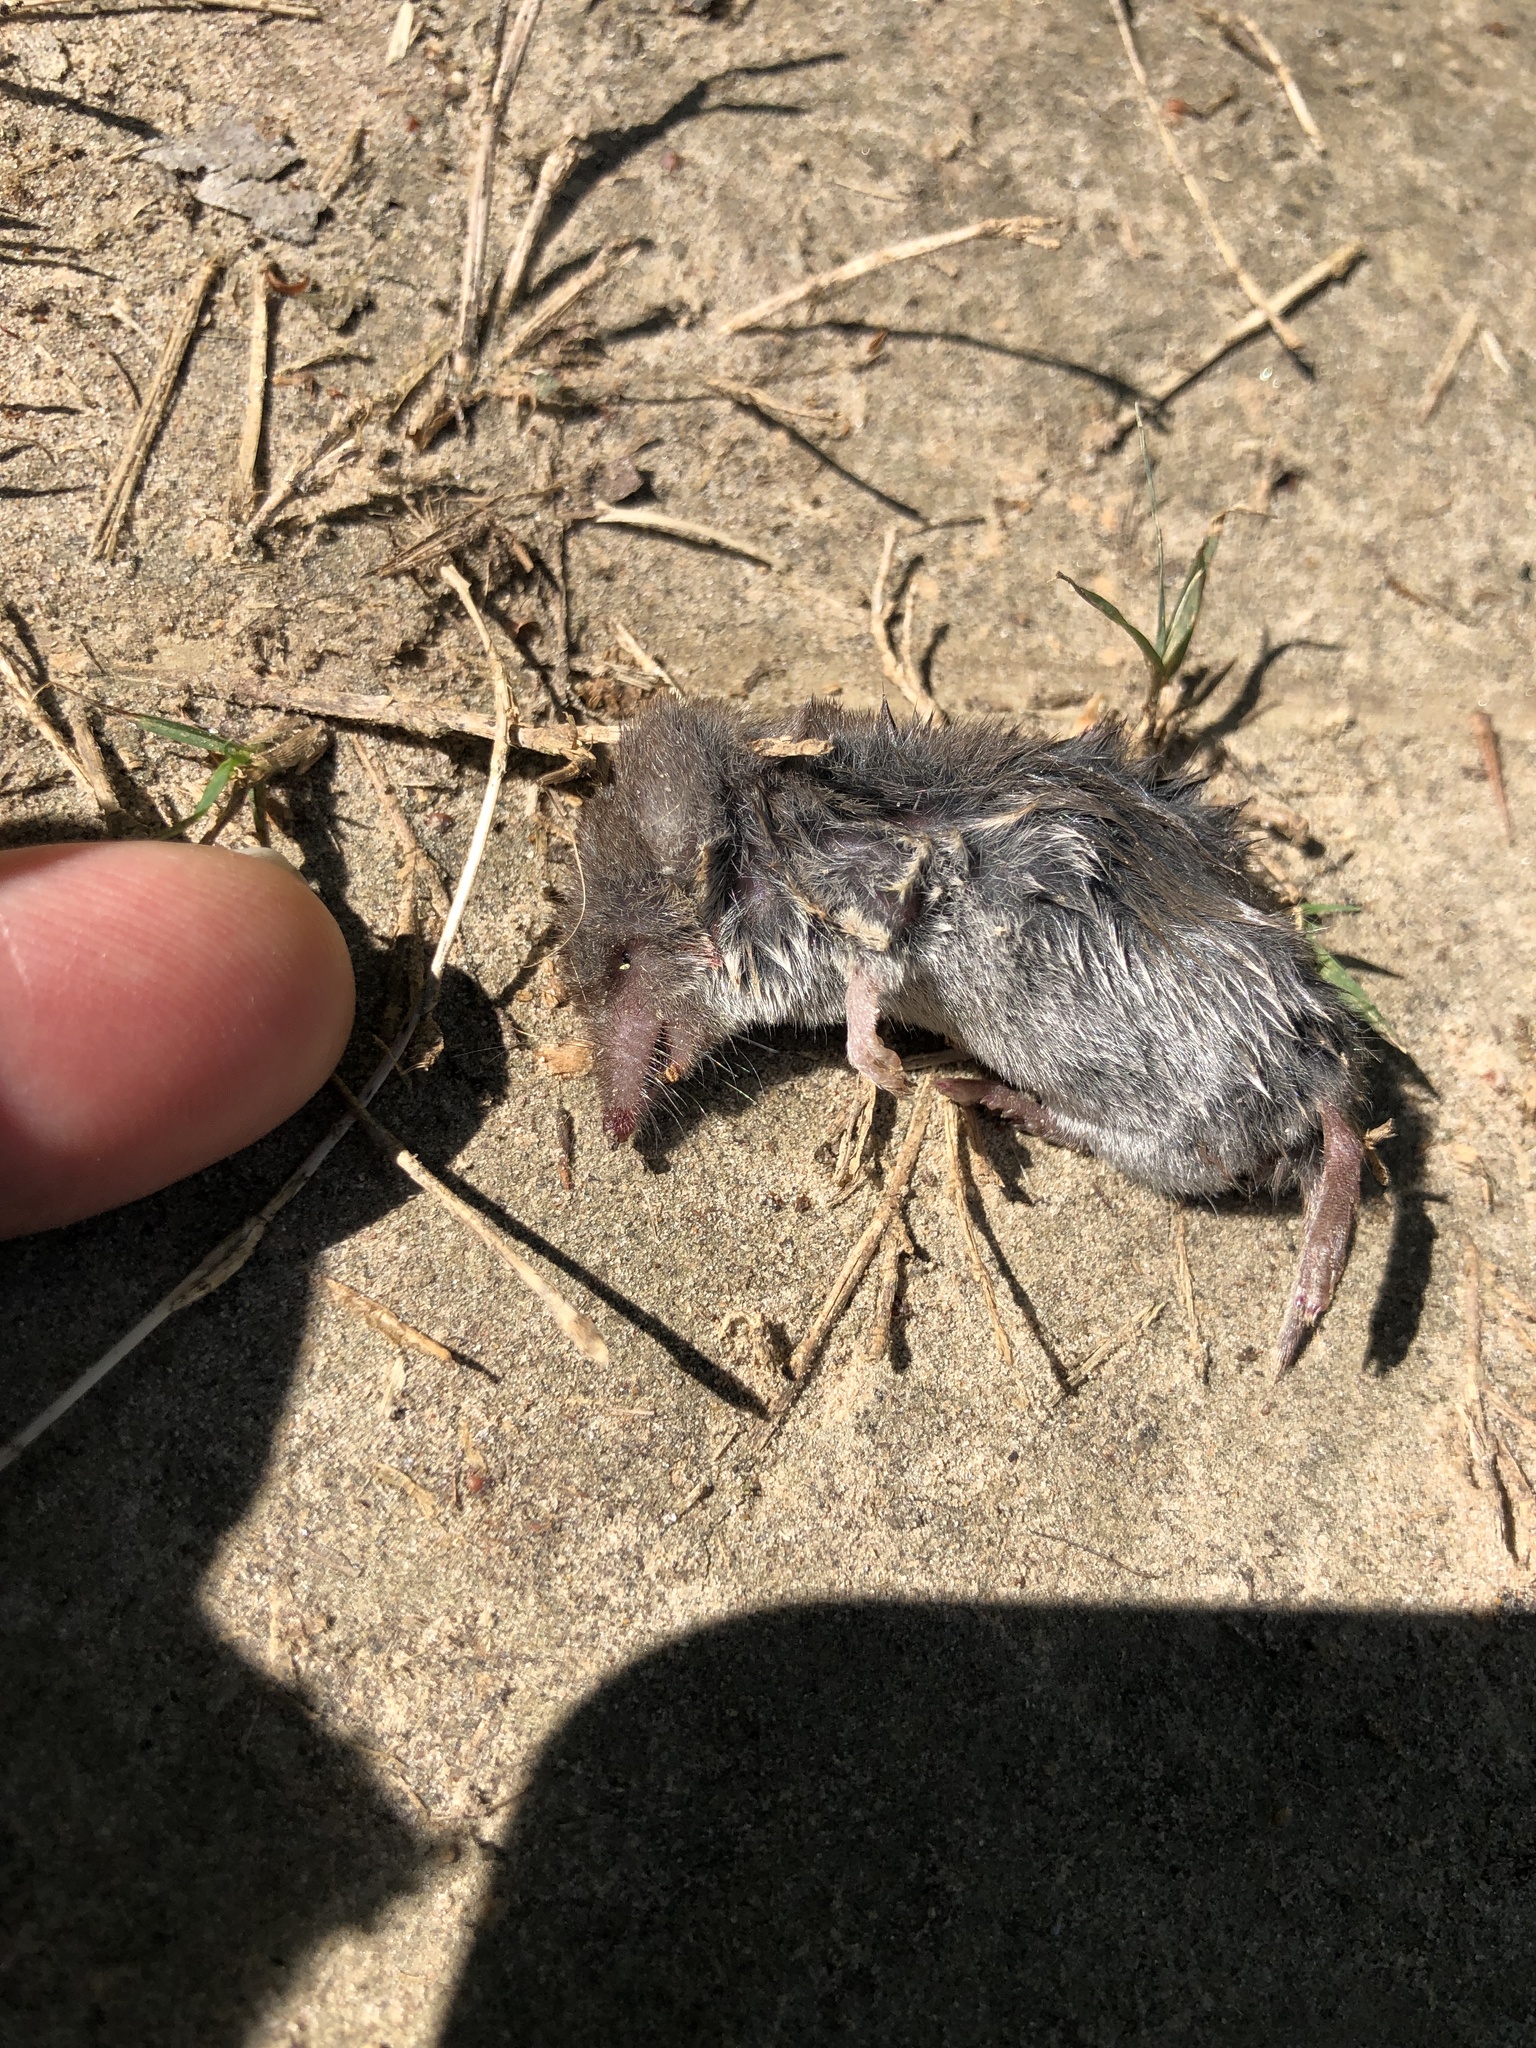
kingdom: Animalia
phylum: Chordata
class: Mammalia
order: Soricomorpha
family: Soricidae
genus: Cryptotis
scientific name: Cryptotis parva
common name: North american least shrew
